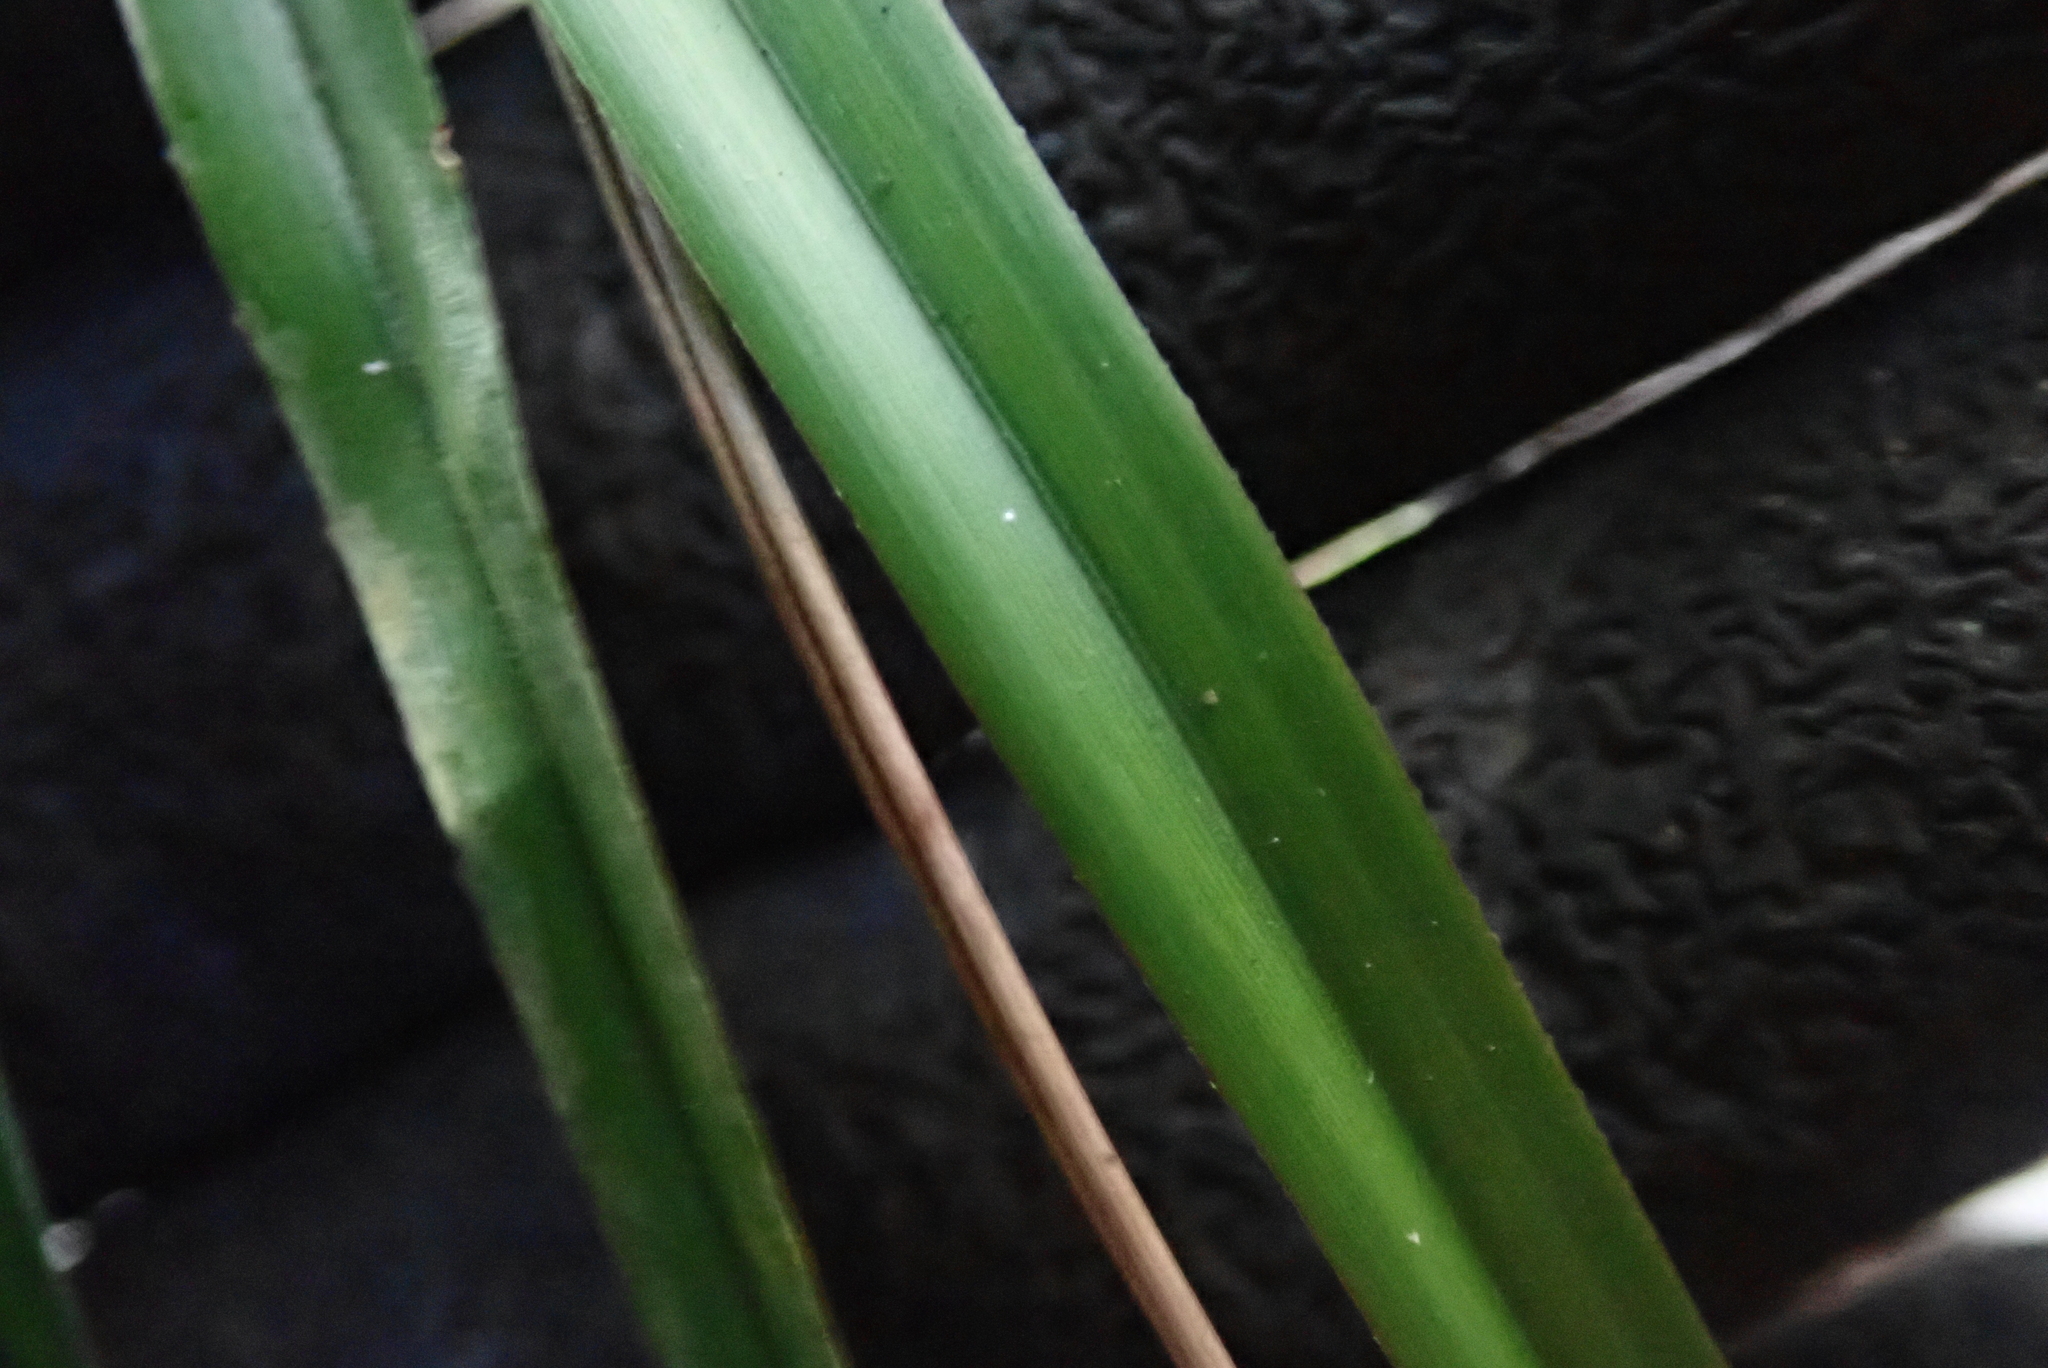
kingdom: Plantae
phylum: Tracheophyta
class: Liliopsida
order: Asparagales
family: Asphodelaceae
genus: Dianella
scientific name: Dianella nigra
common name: New zealand-blueberry
